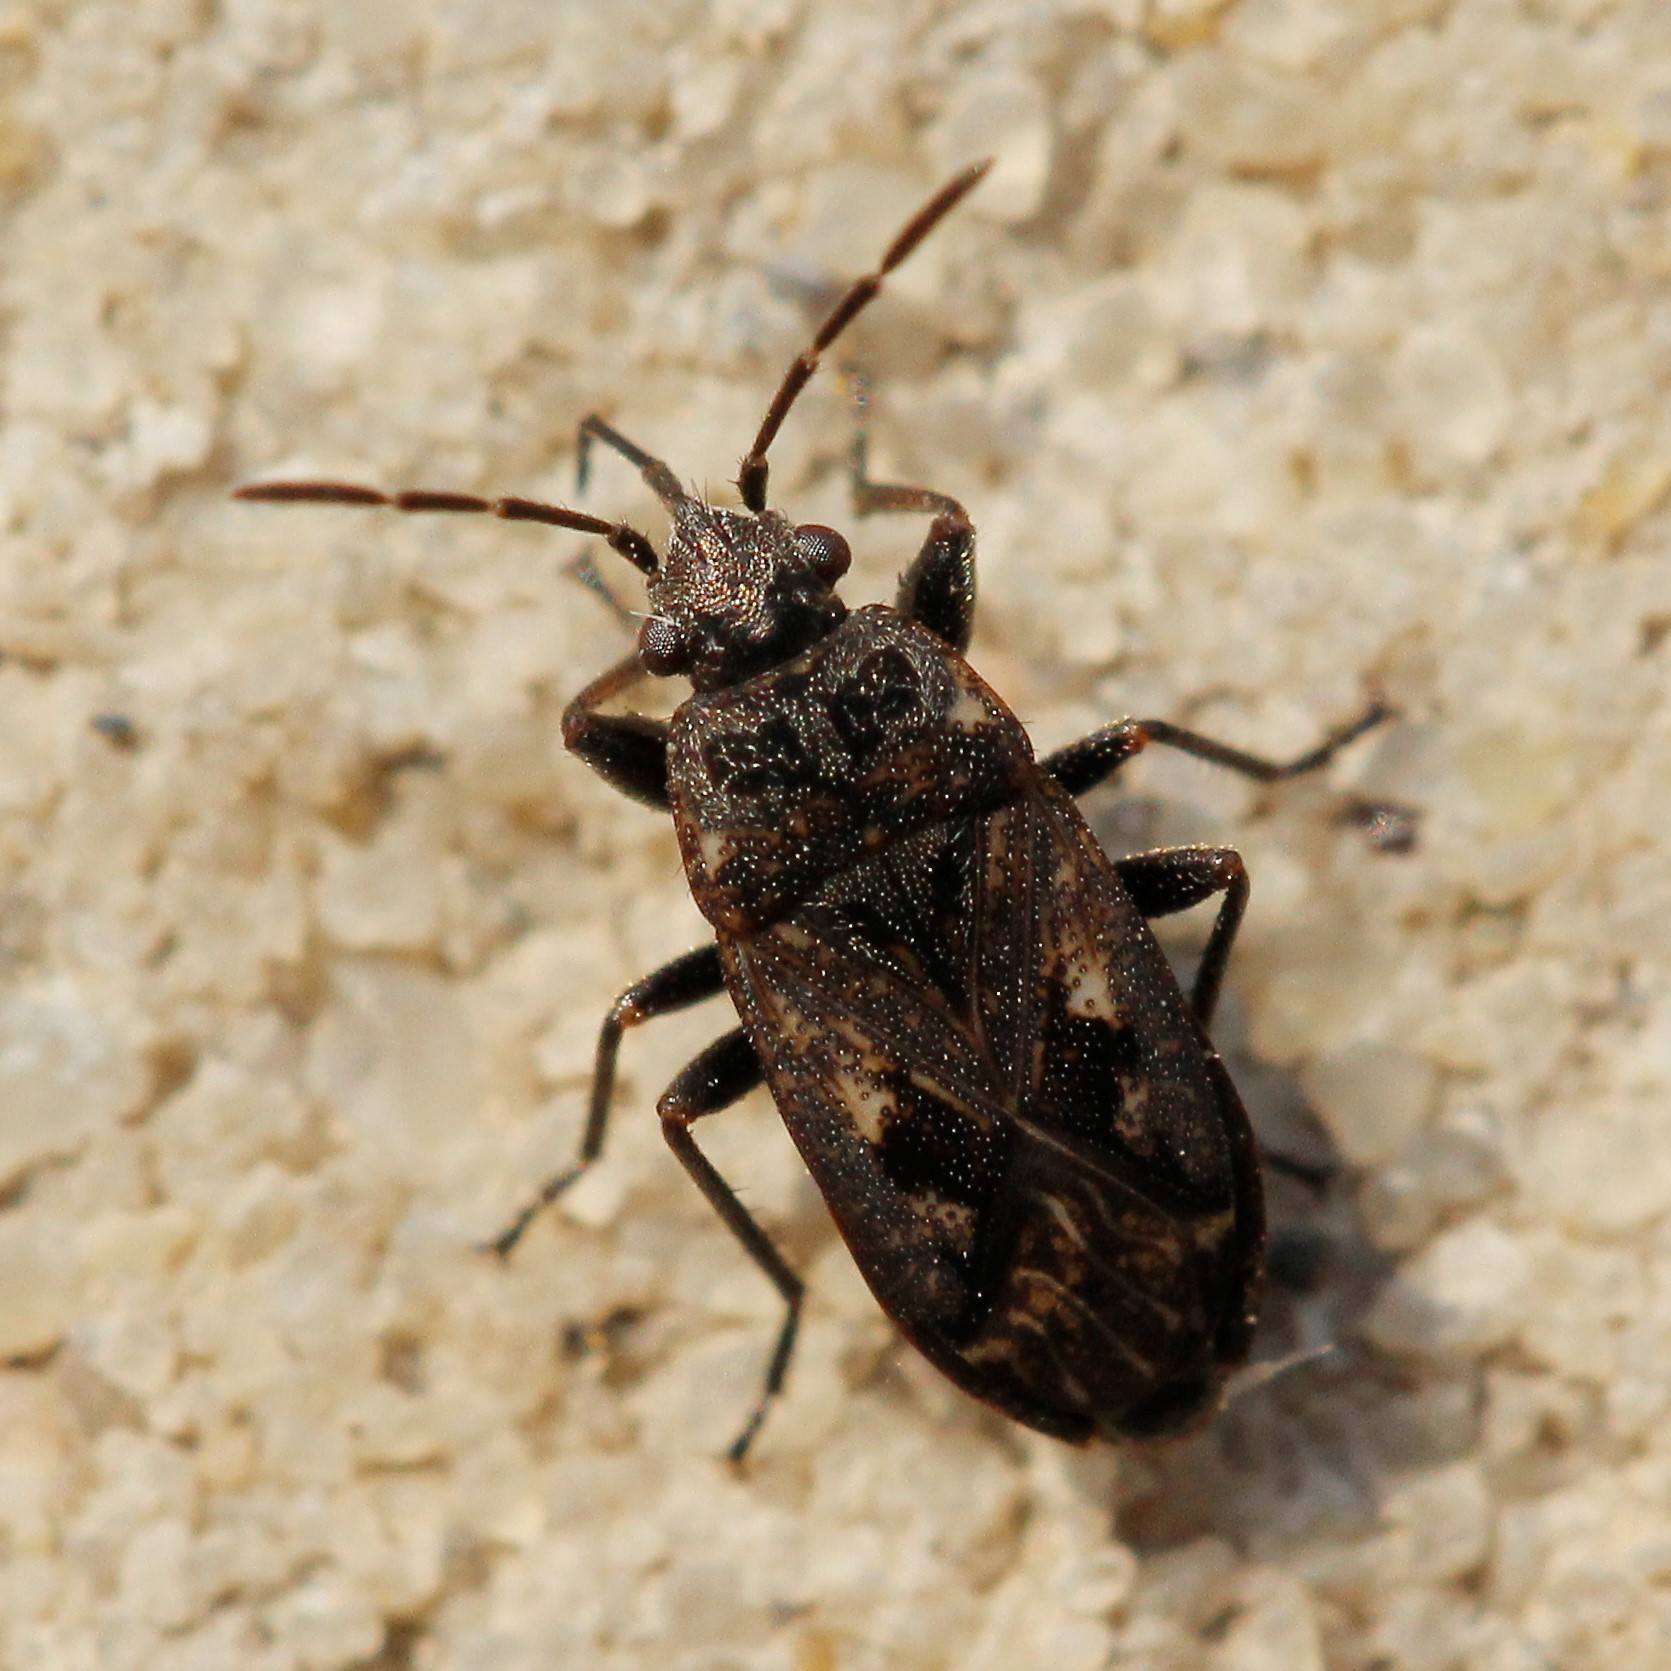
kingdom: Animalia
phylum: Arthropoda
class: Insecta
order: Hemiptera
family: Rhyparochromidae
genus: Sphragisticus
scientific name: Sphragisticus nebulosus
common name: Dirt-colored seed bug
